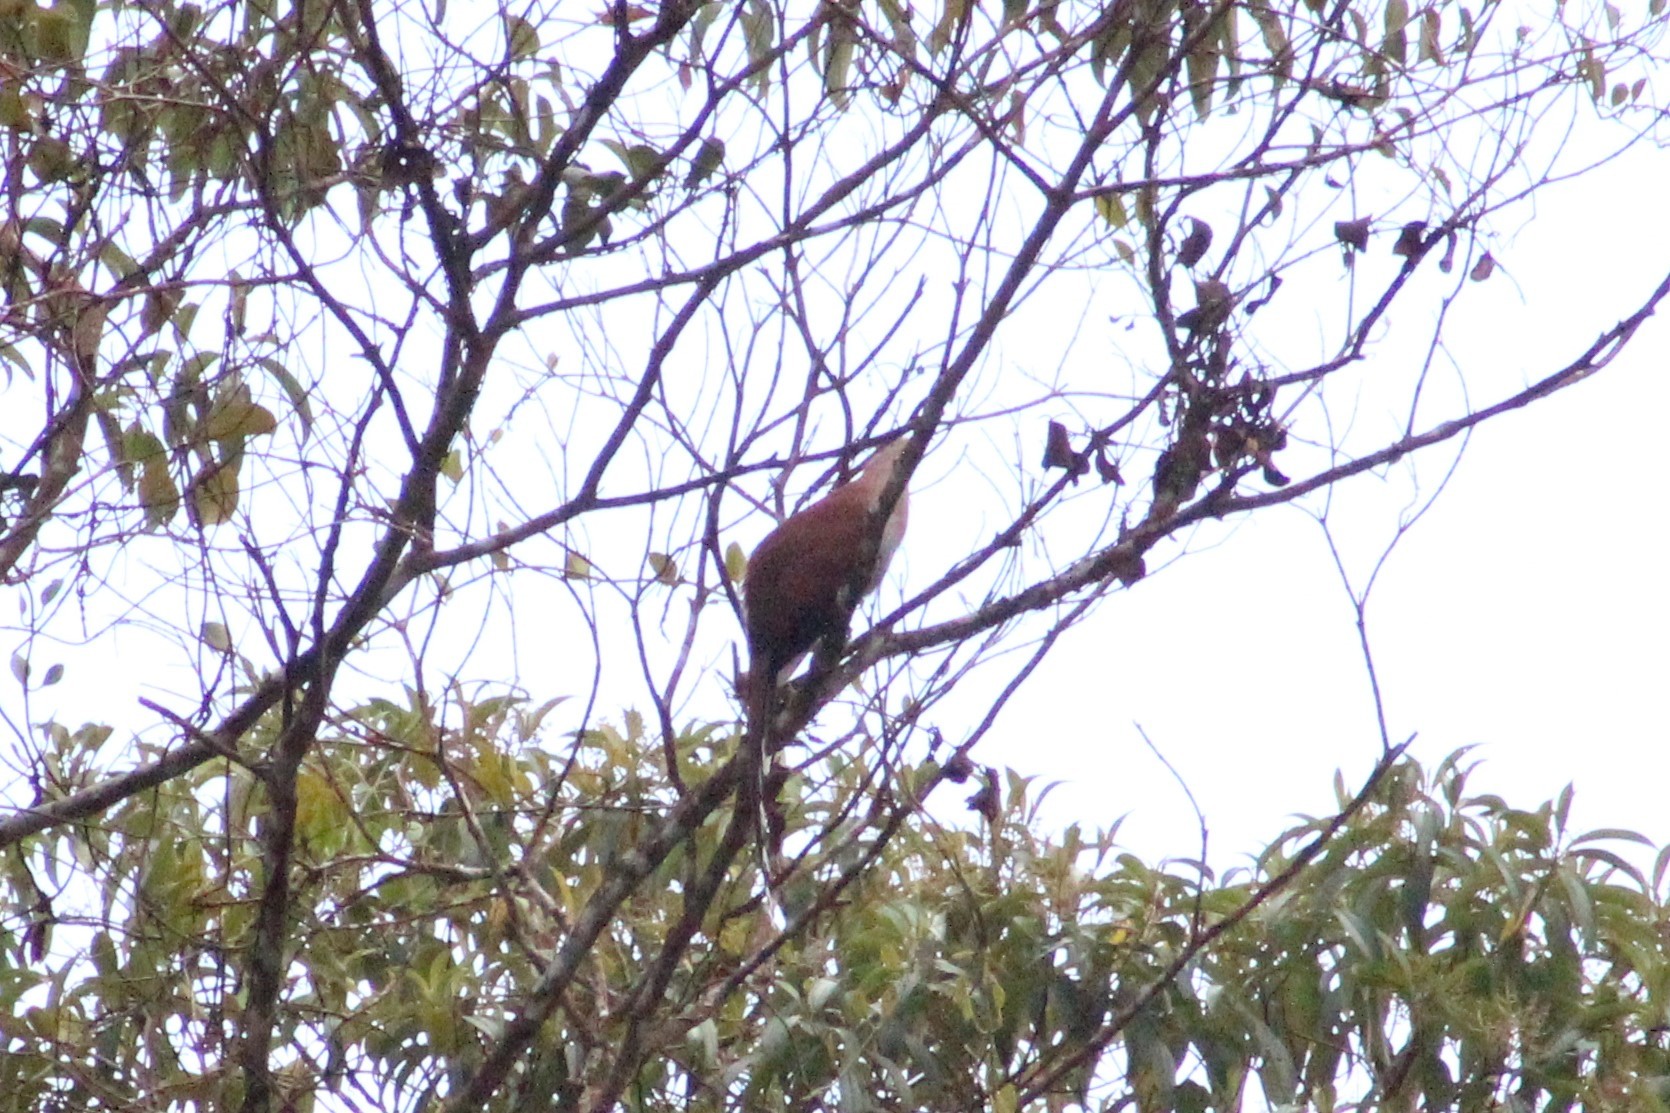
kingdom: Animalia
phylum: Chordata
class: Aves
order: Cuculiformes
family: Cuculidae
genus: Piaya
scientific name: Piaya cayana
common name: Squirrel cuckoo
